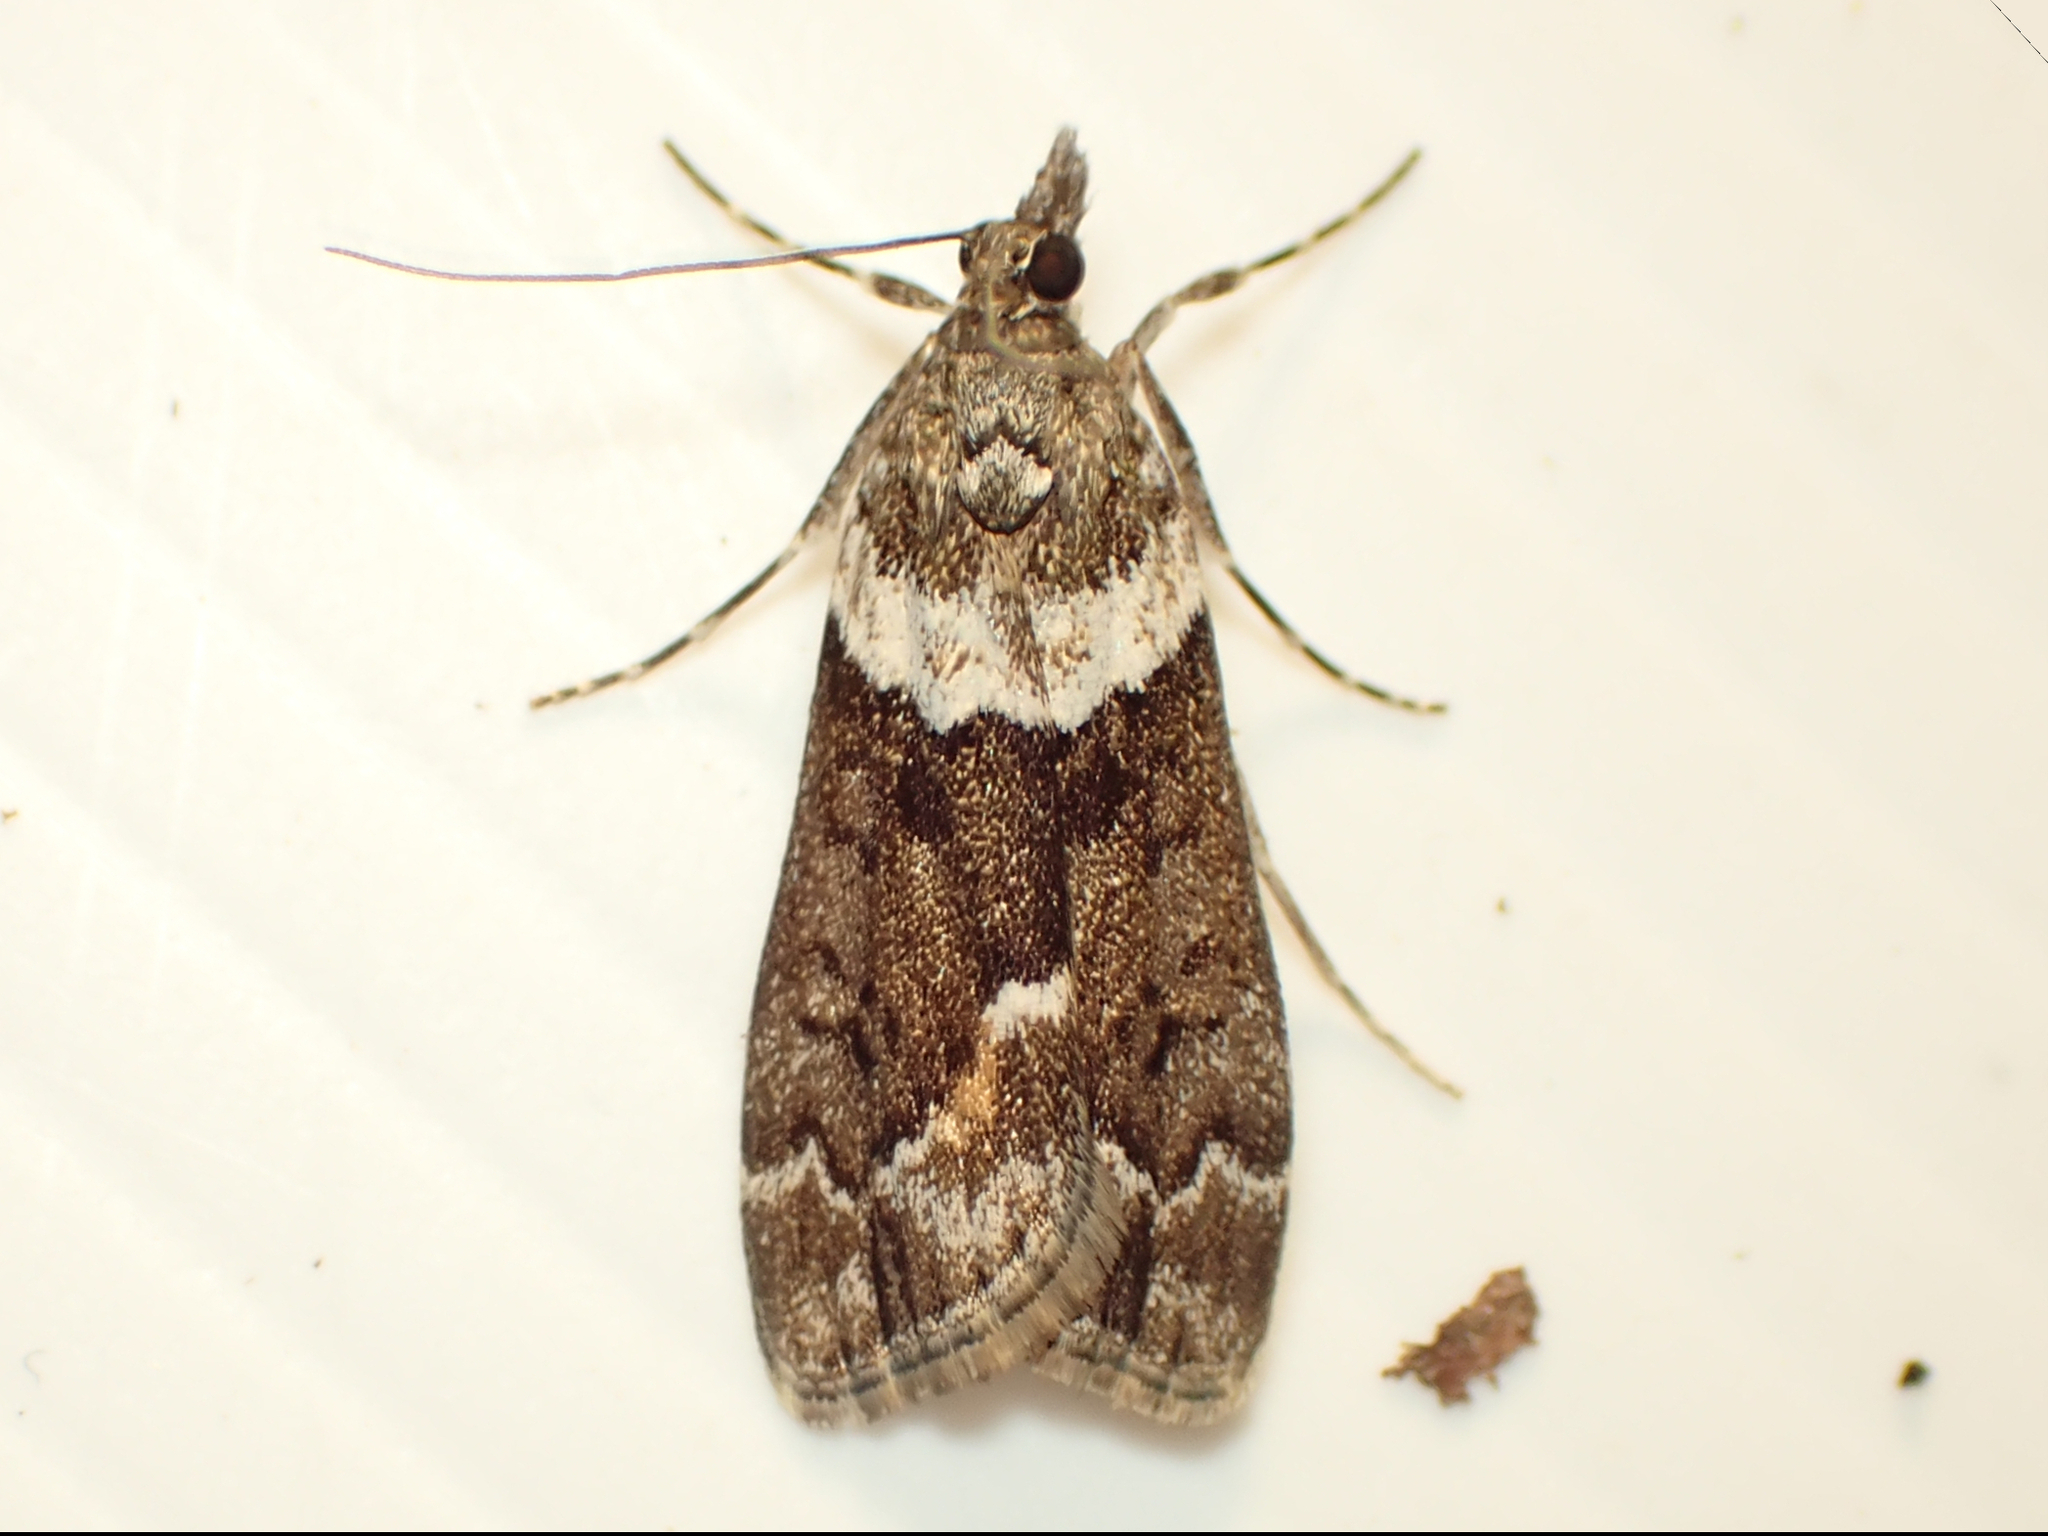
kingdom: Animalia
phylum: Arthropoda
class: Insecta
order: Lepidoptera
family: Crambidae
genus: Eudonia
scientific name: Eudonia submarginalis
